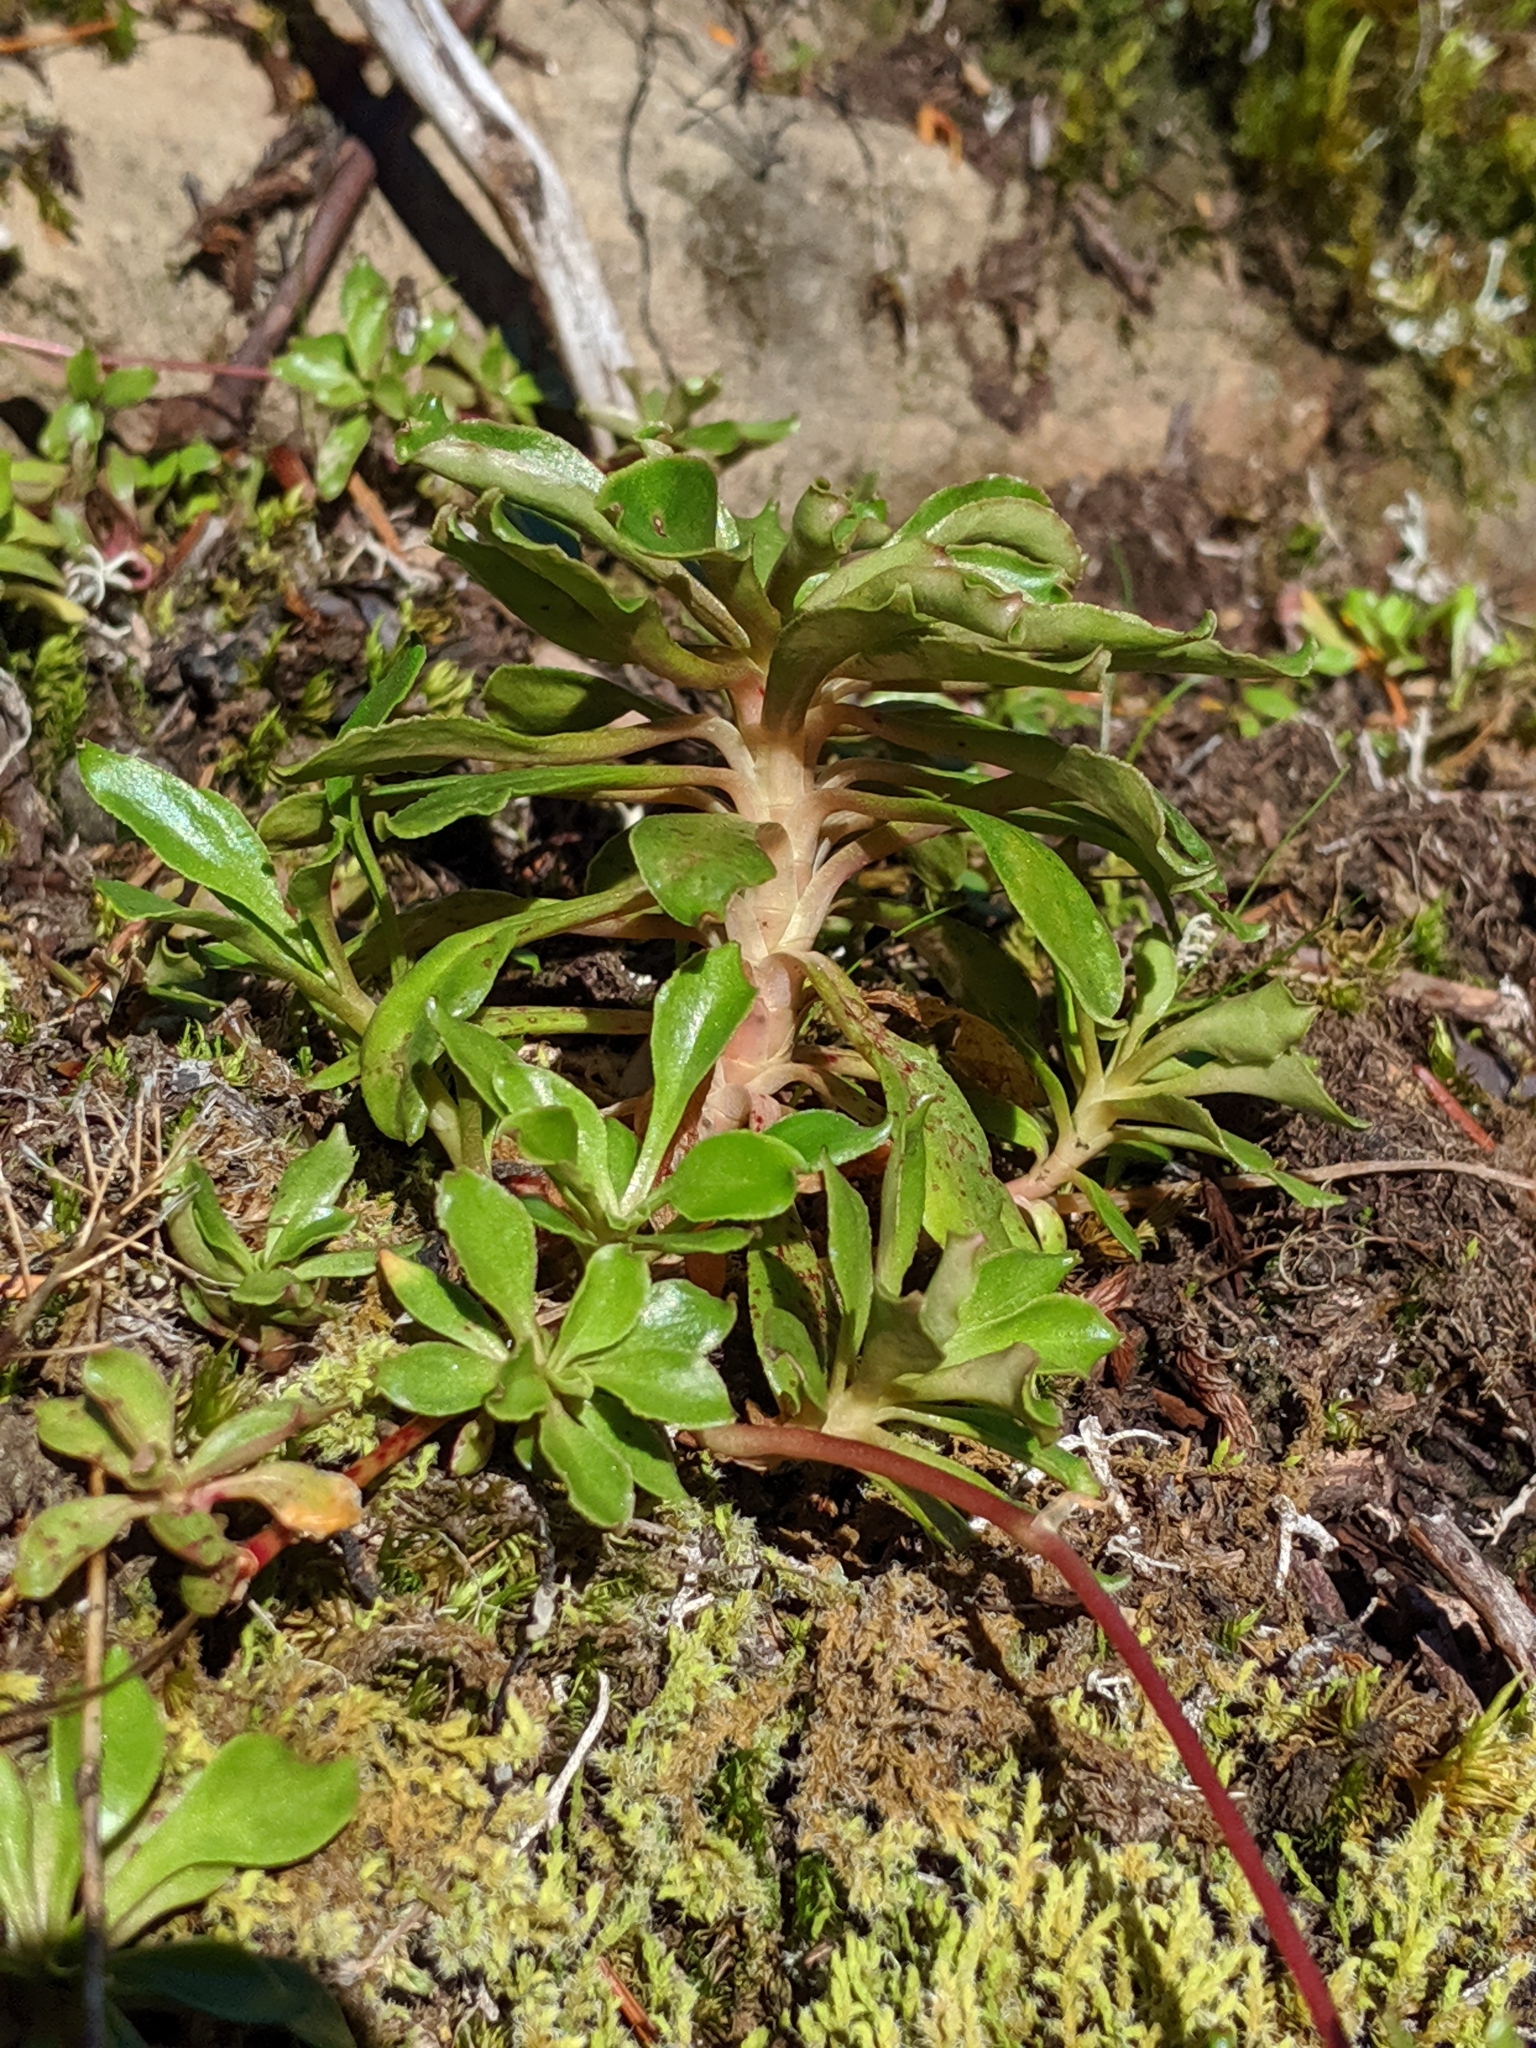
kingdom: Plantae
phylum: Tracheophyta
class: Magnoliopsida
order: Caryophyllales
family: Montiaceae
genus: Montia
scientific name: Montia parvifolia
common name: Small-leaved blinks
